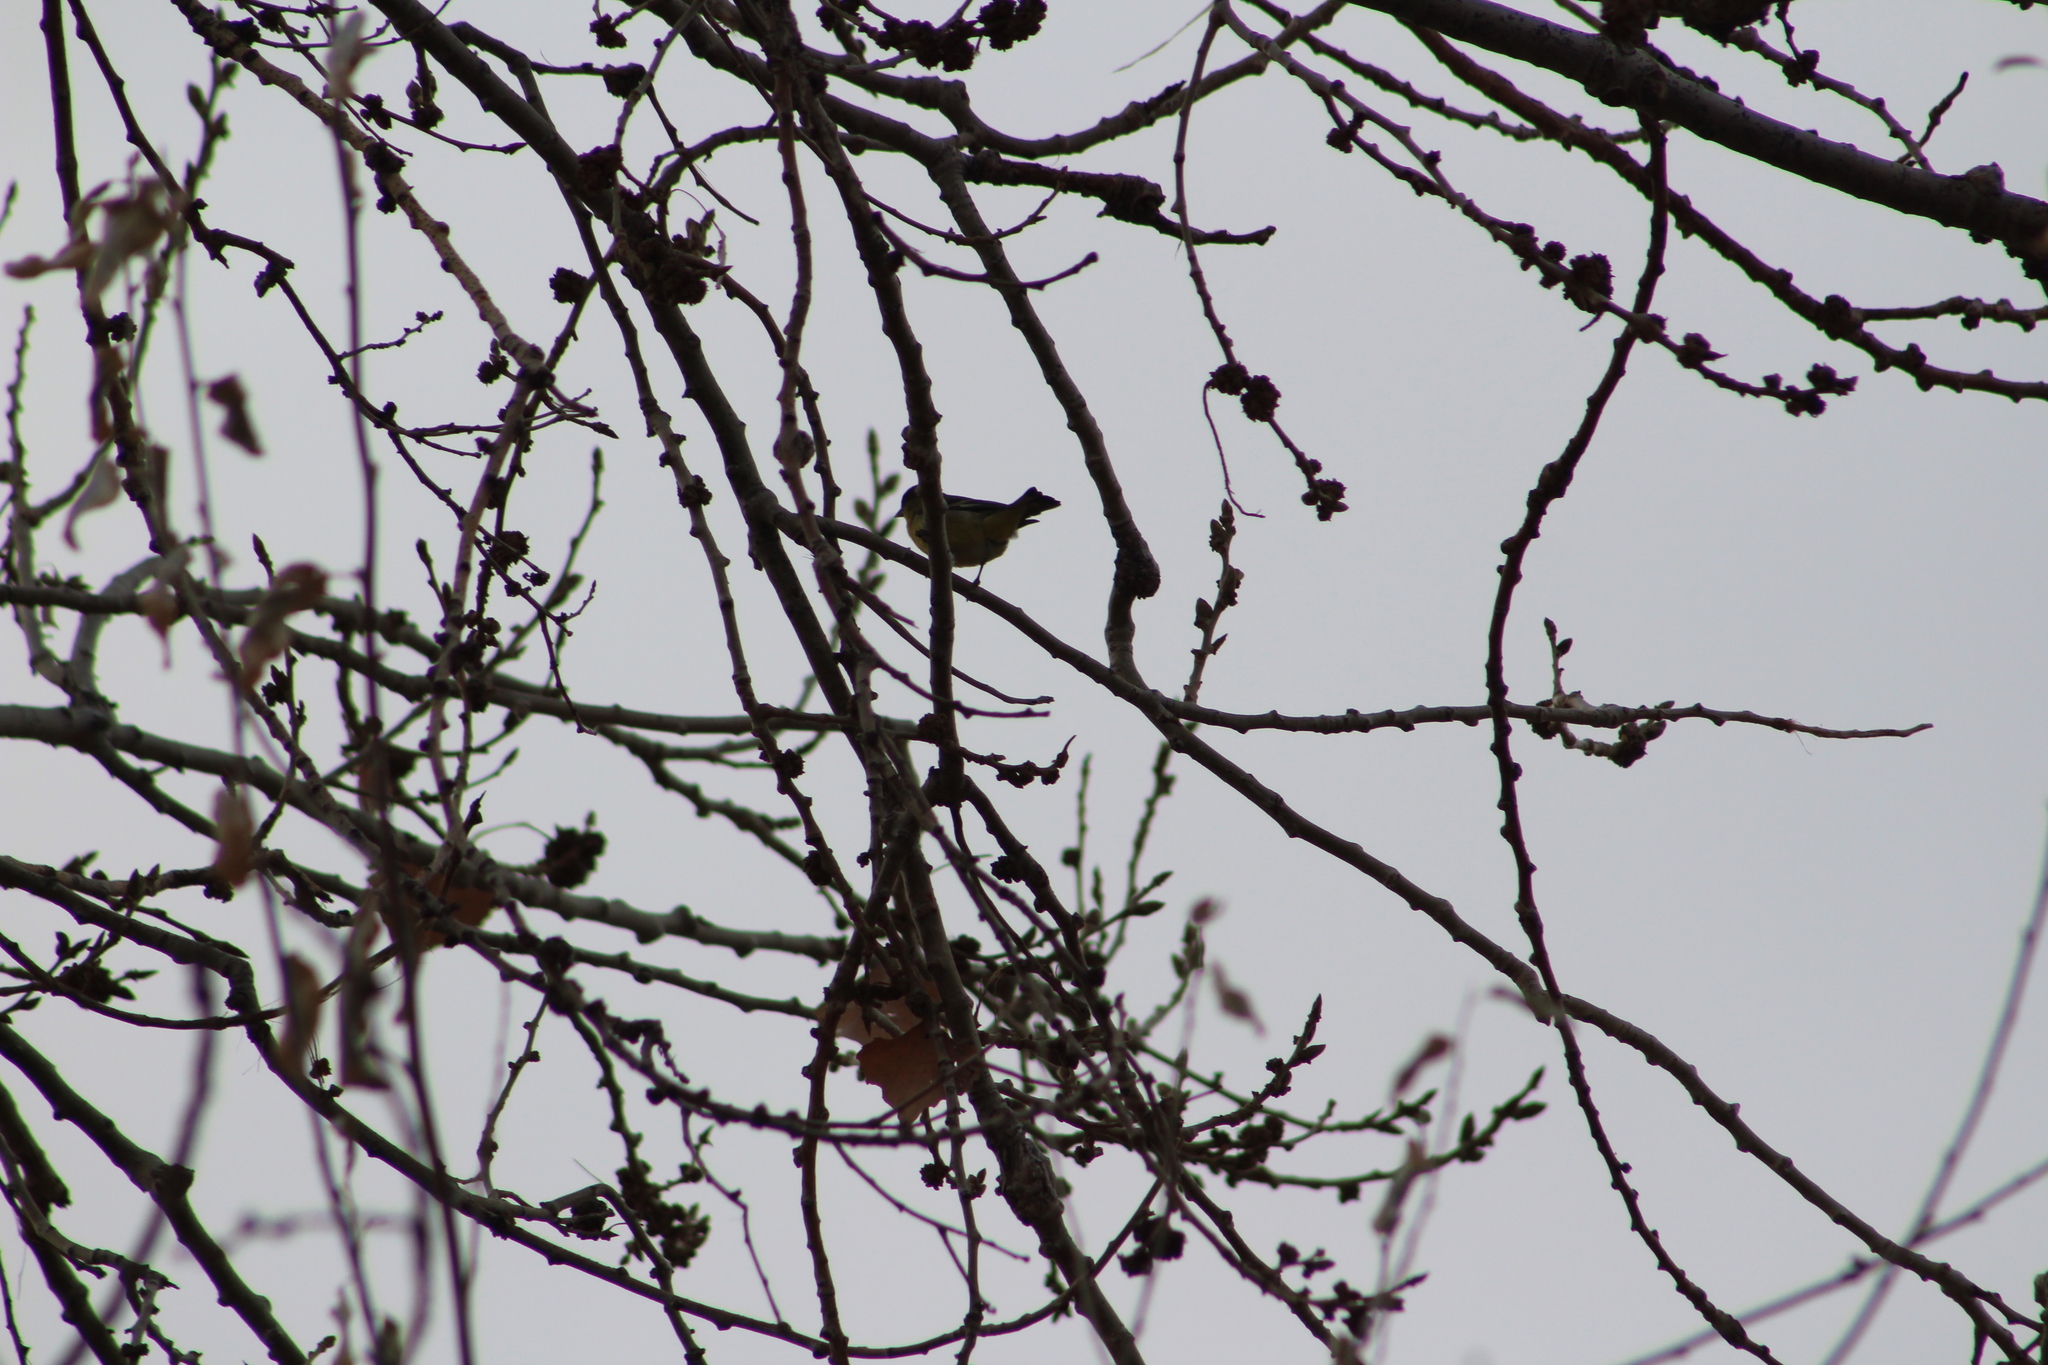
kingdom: Animalia
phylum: Chordata
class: Aves
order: Passeriformes
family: Fringillidae
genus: Spinus
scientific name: Spinus psaltria
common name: Lesser goldfinch
